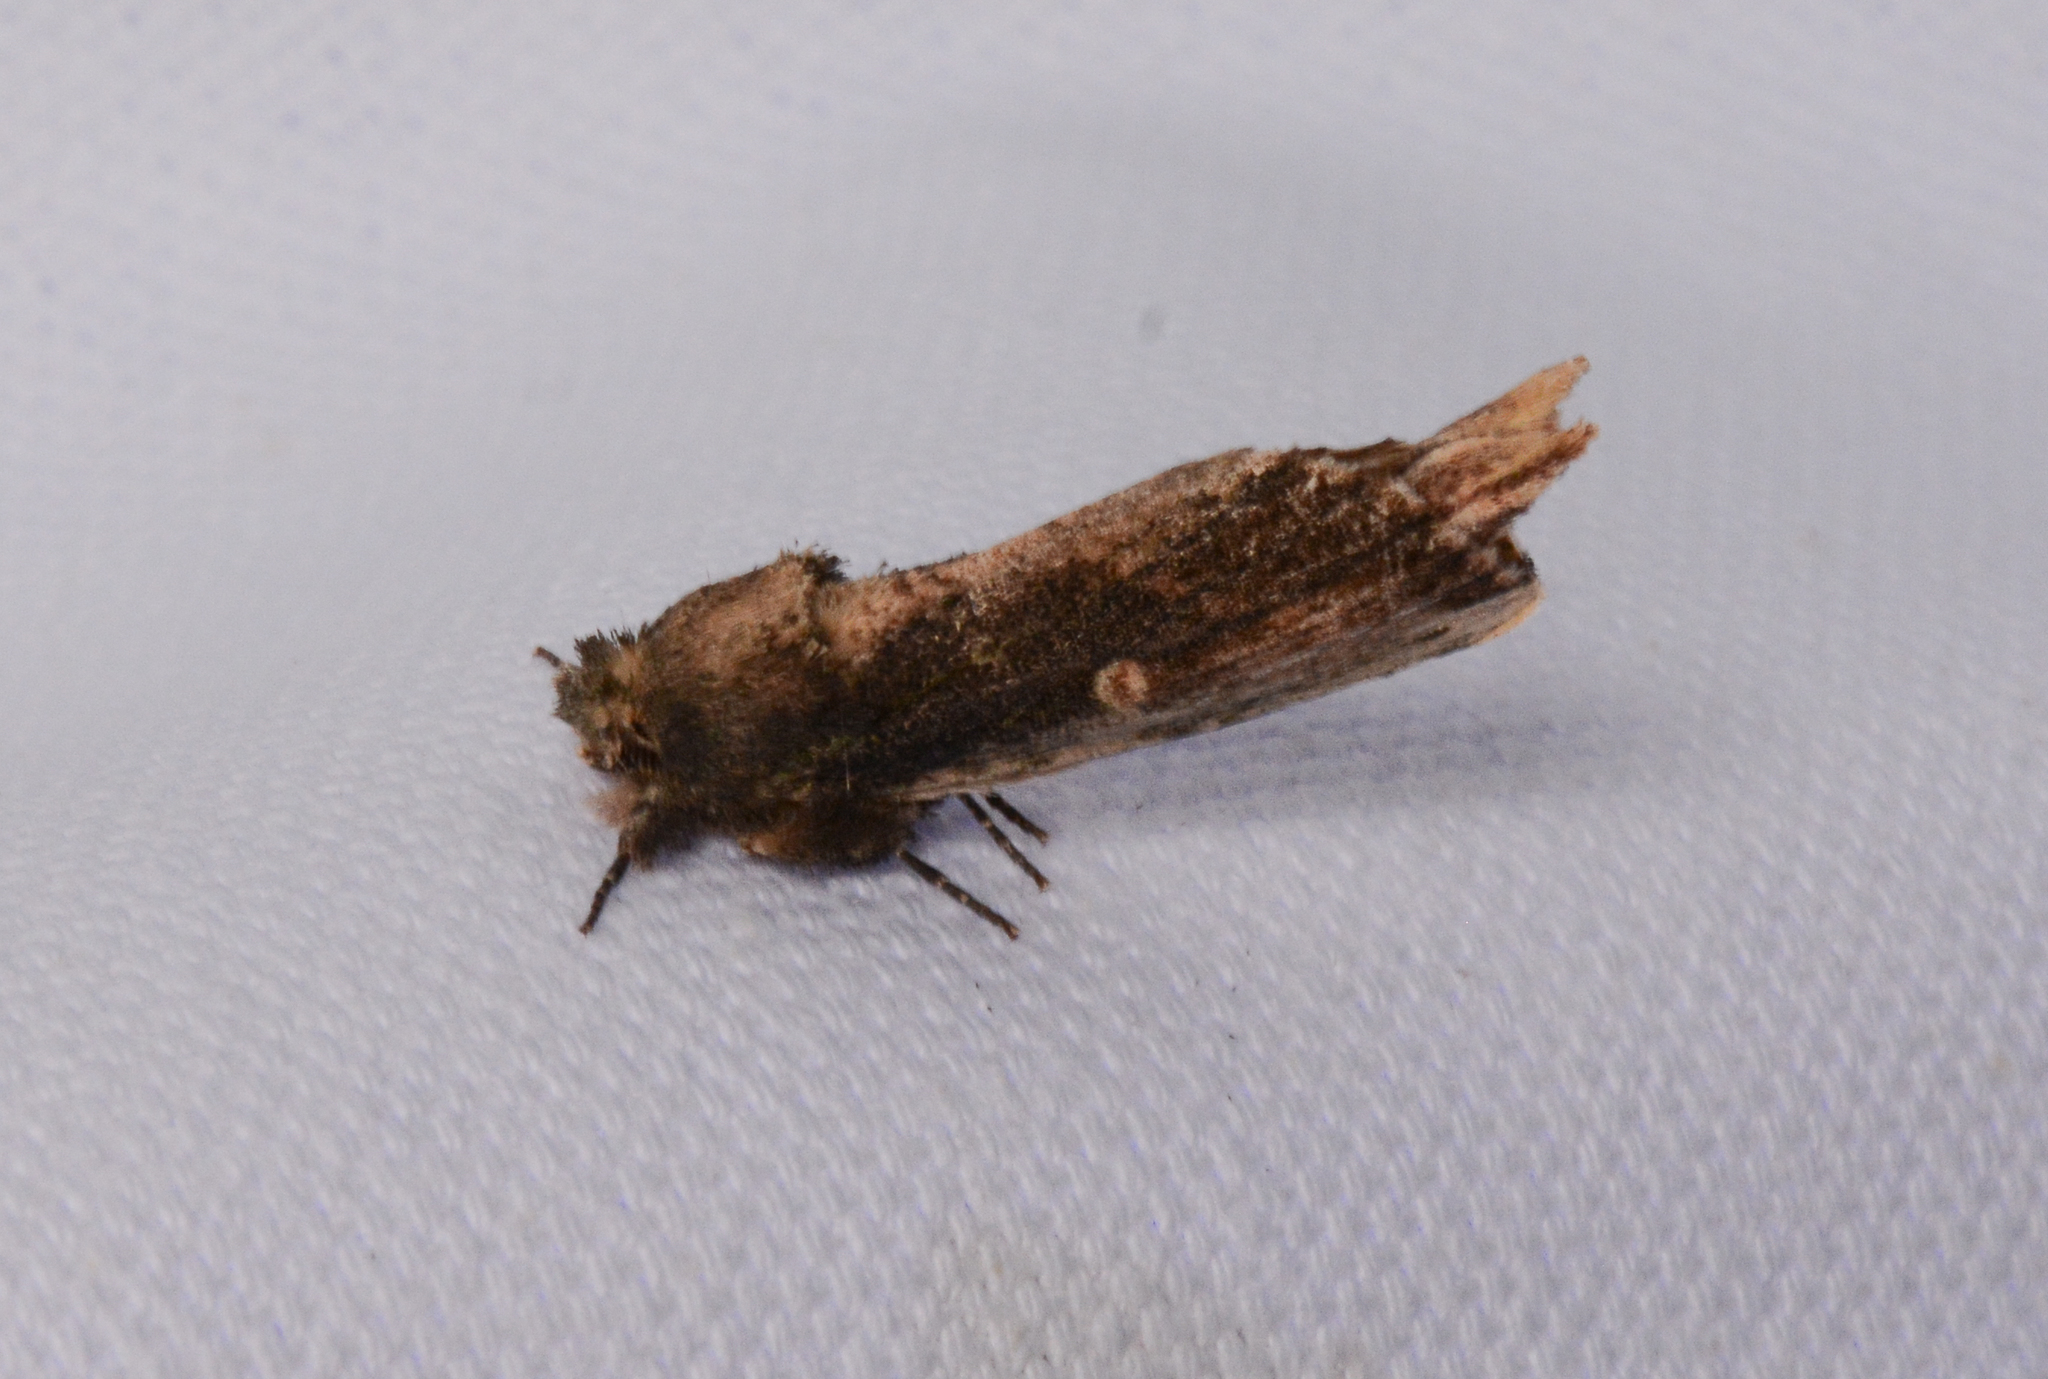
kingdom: Animalia
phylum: Arthropoda
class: Insecta
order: Lepidoptera
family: Notodontidae
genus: Schizura
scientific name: Schizura ipomaeae
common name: Morning-glory prominent
